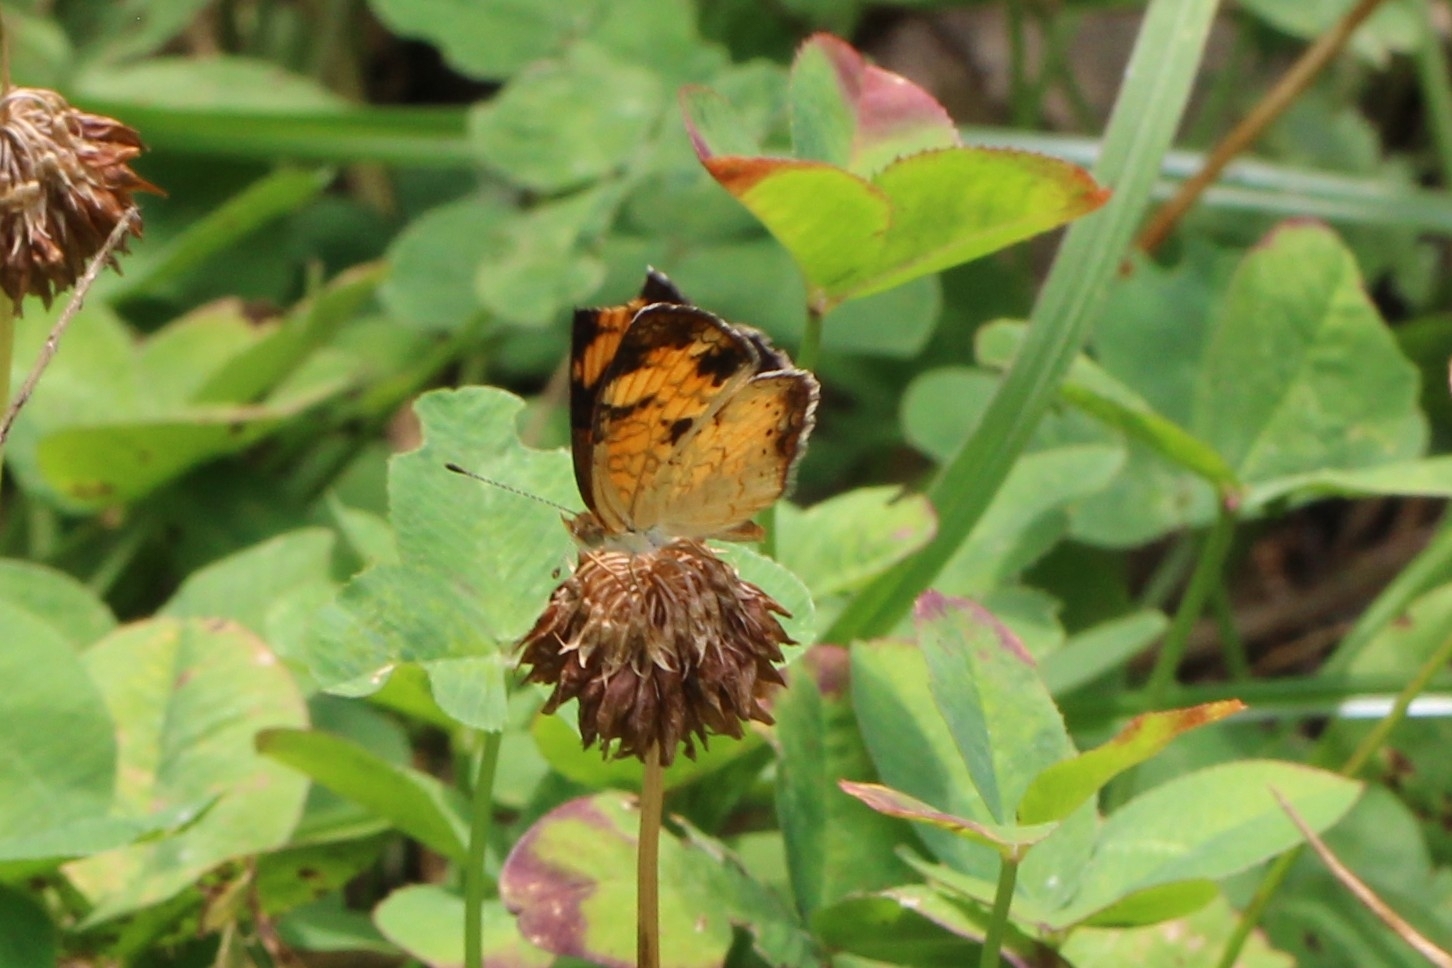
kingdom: Animalia
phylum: Arthropoda
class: Insecta
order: Lepidoptera
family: Nymphalidae
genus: Phyciodes
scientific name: Phyciodes tharos
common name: Pearl crescent
